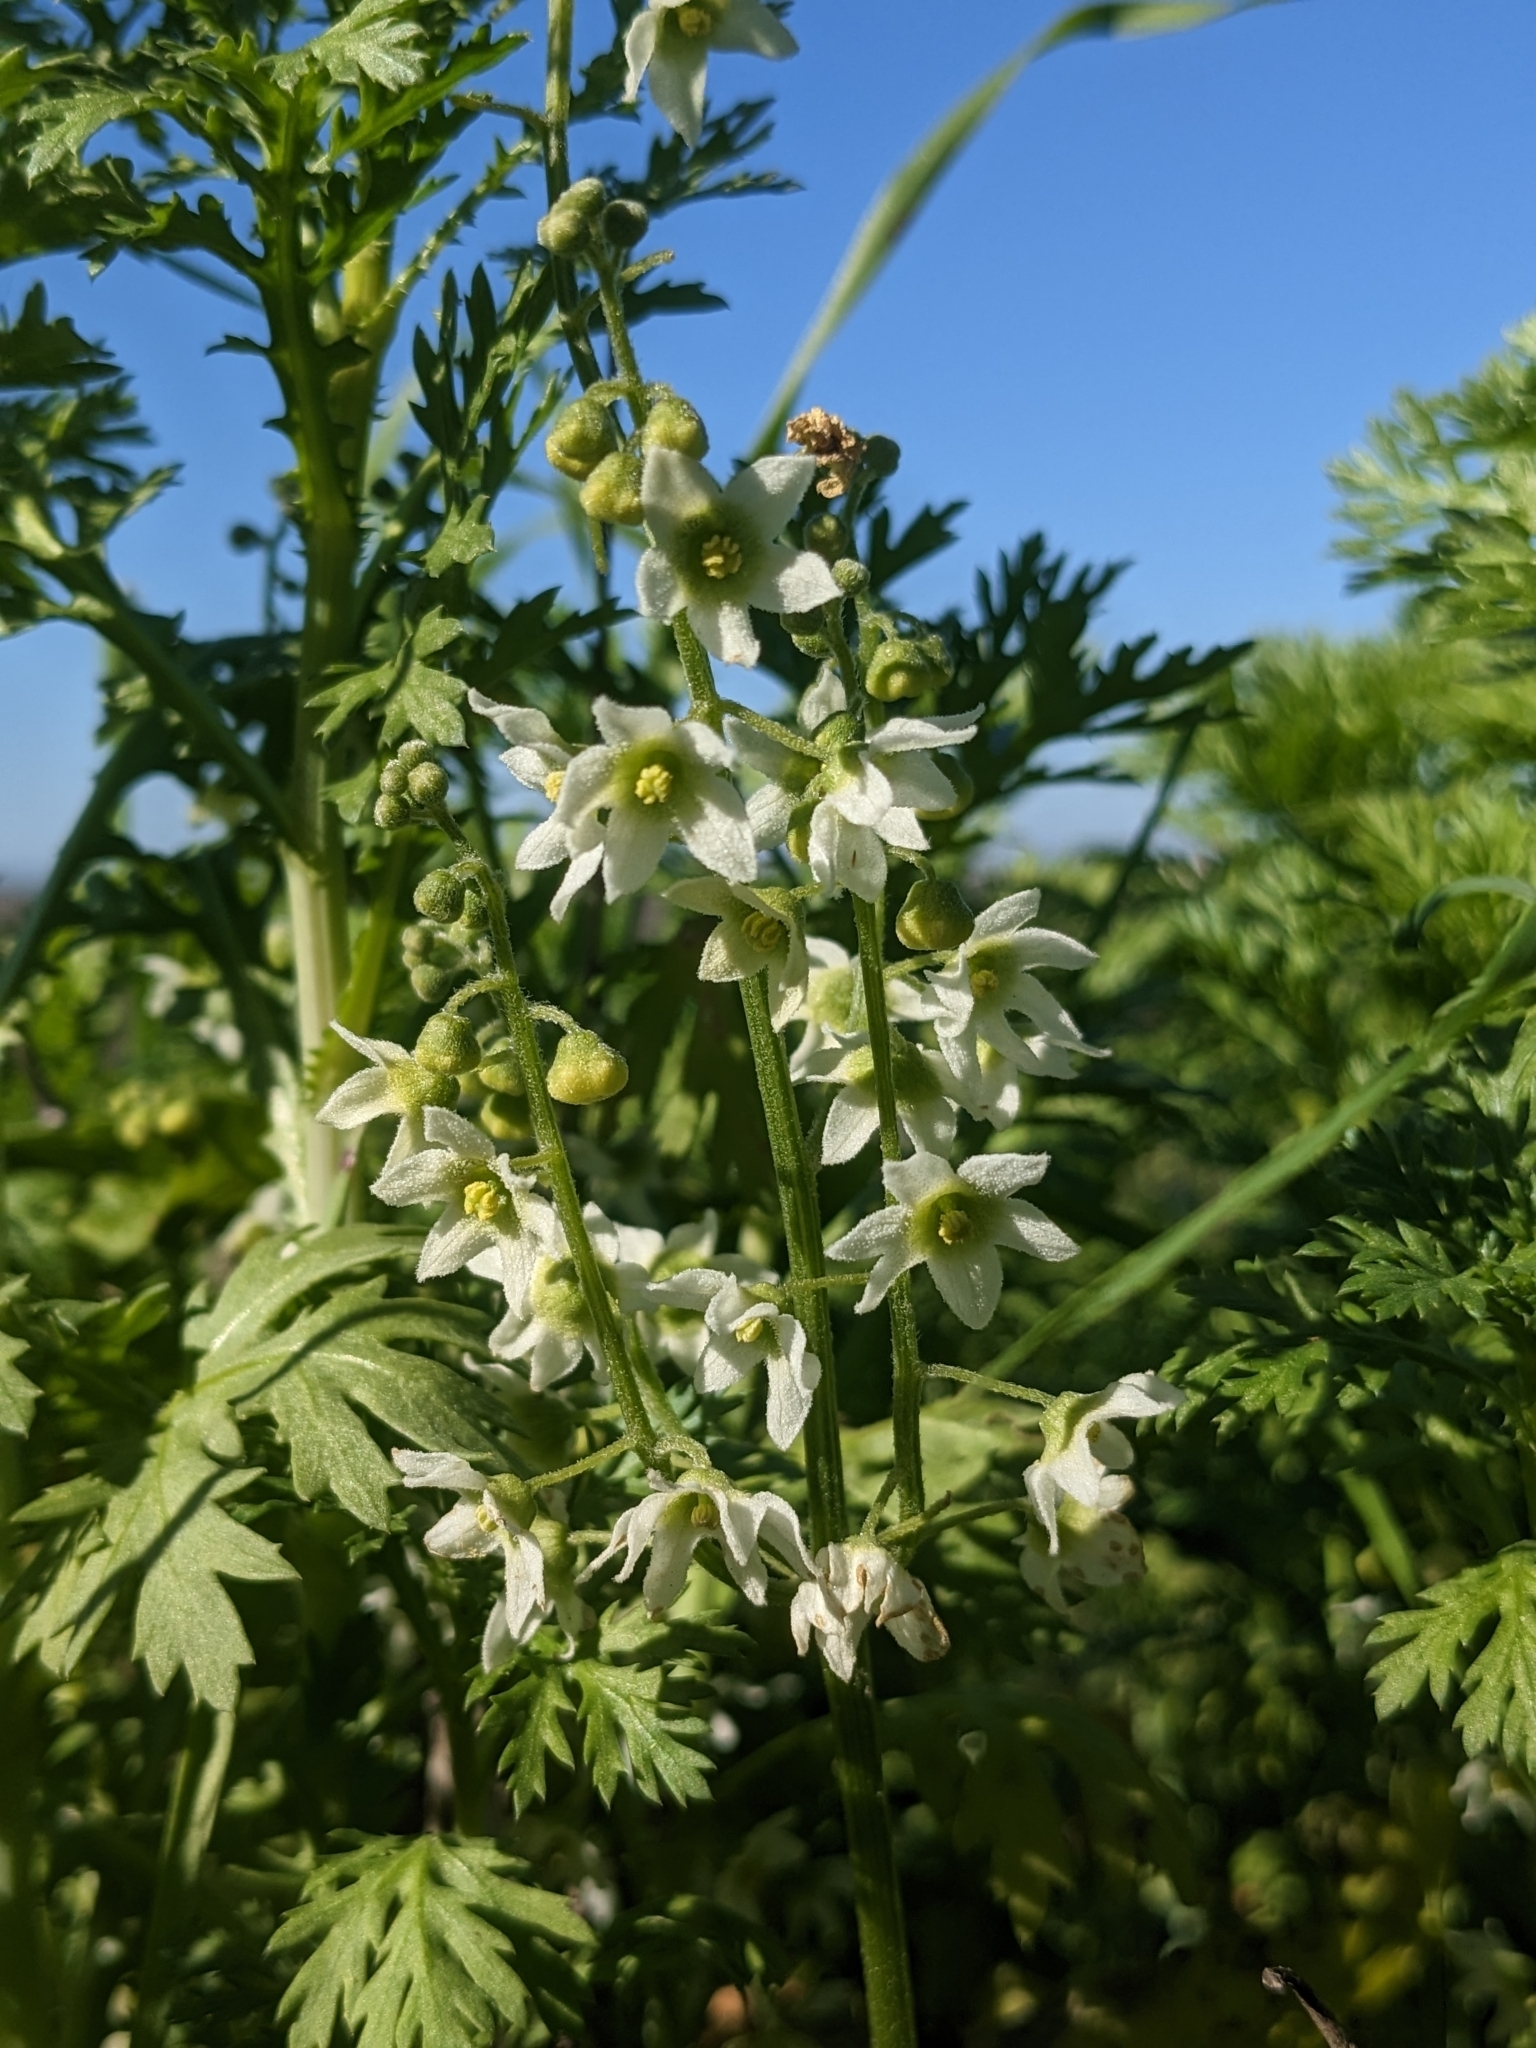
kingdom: Plantae
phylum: Tracheophyta
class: Magnoliopsida
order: Cucurbitales
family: Cucurbitaceae
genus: Marah
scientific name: Marah macrocarpa
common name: Cucamonga manroot
